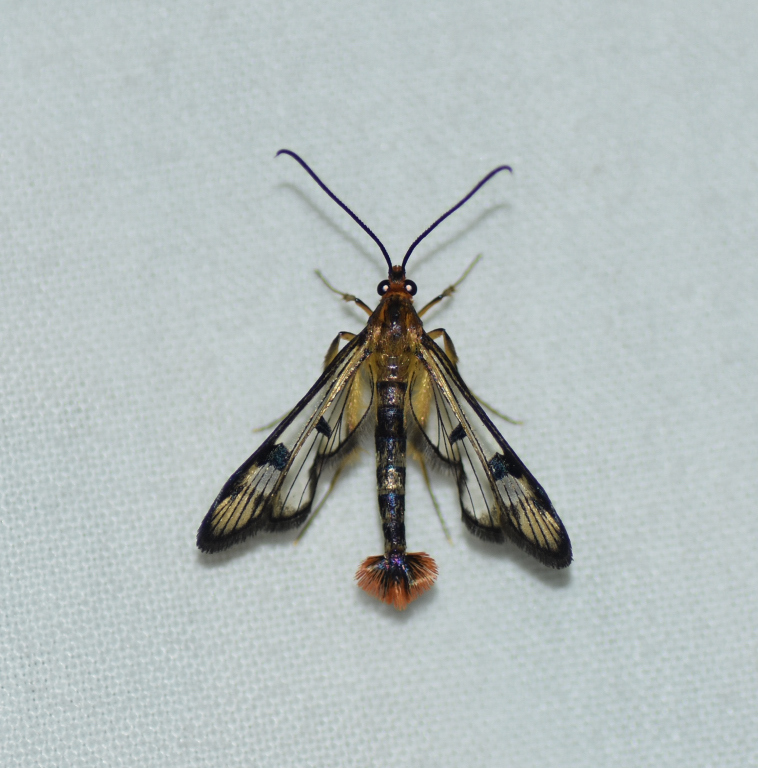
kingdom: Animalia
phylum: Arthropoda
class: Insecta
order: Lepidoptera
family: Sesiidae
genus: Synanthedon
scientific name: Synanthedon acerni
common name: Maple callus borer moth
